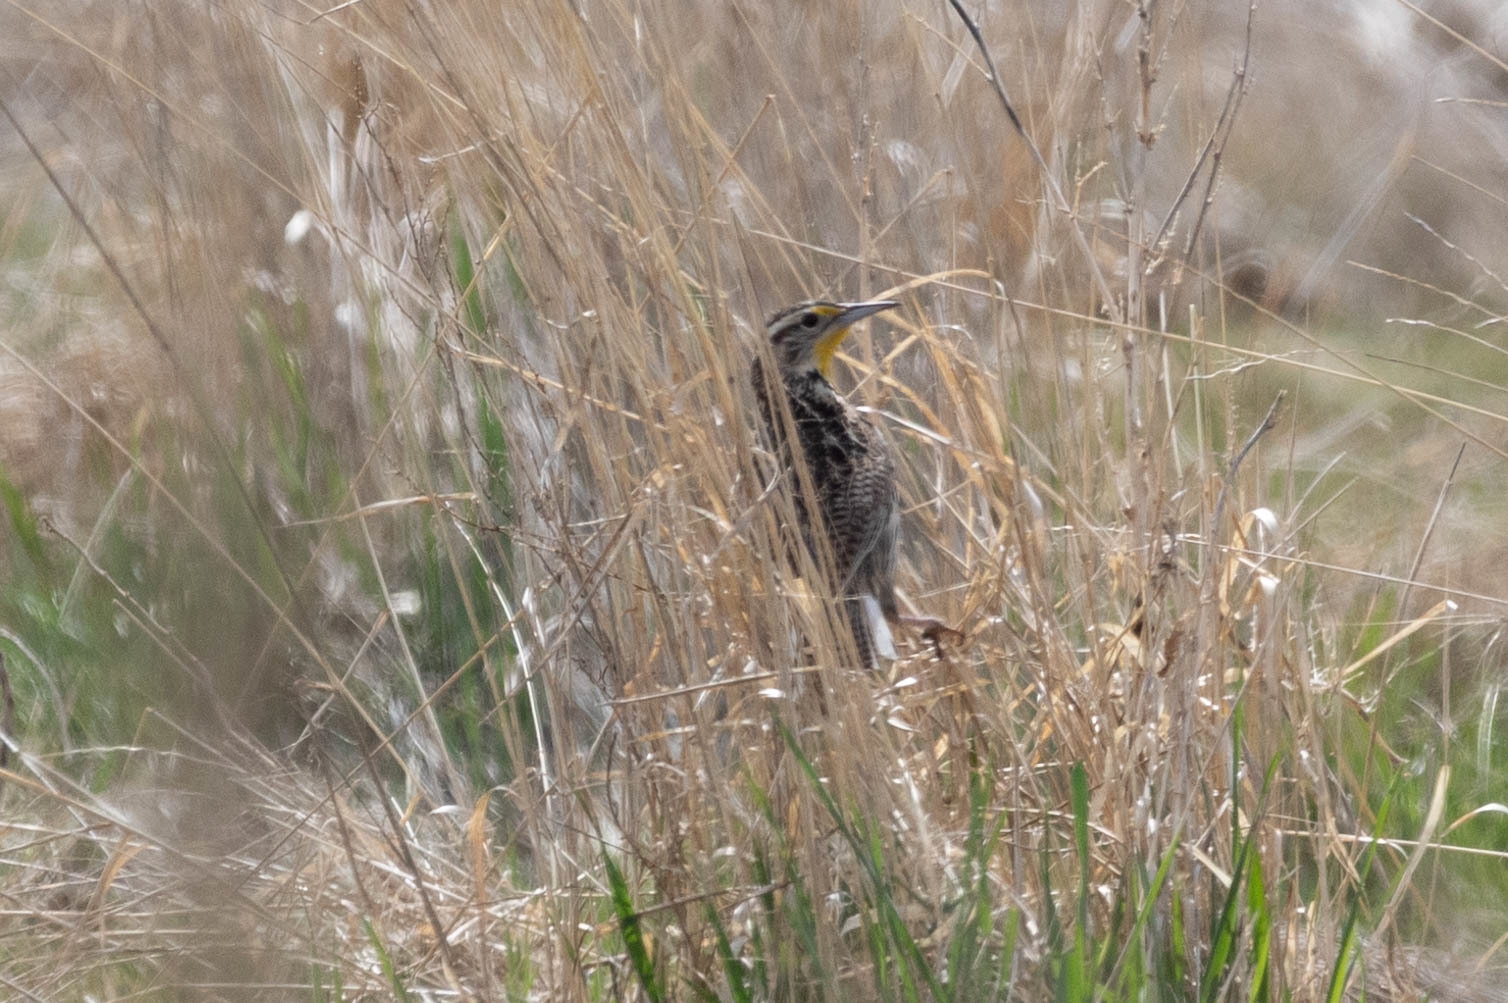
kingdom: Animalia
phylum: Chordata
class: Aves
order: Passeriformes
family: Icteridae
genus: Sturnella
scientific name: Sturnella neglecta
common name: Western meadowlark
